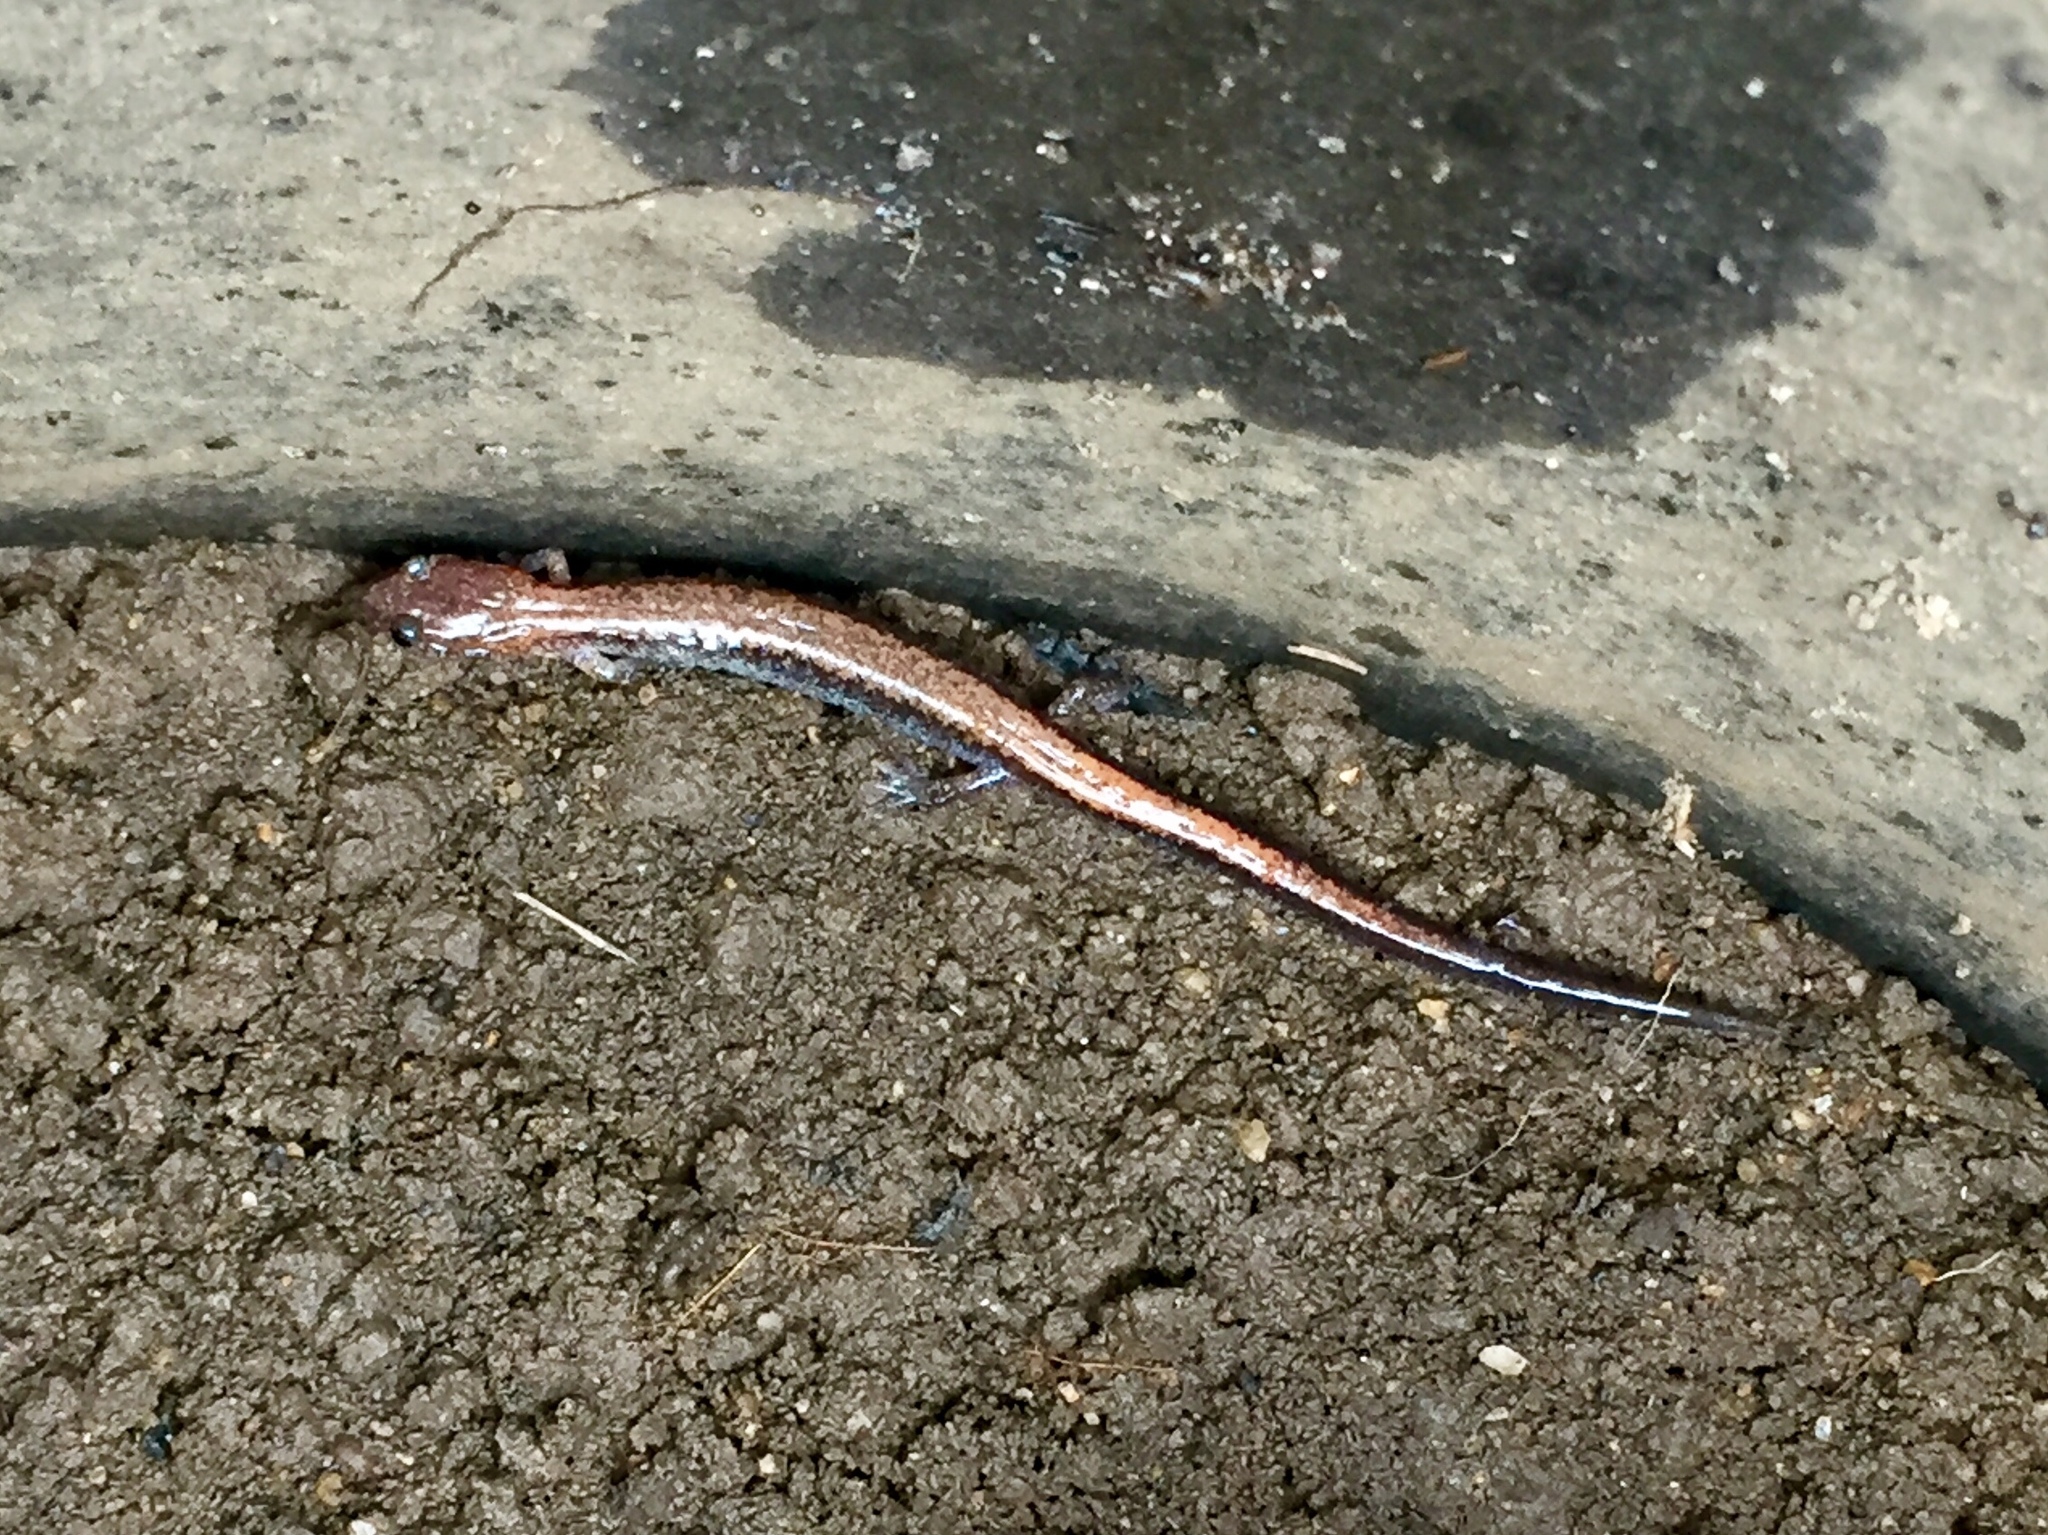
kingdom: Animalia
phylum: Chordata
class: Amphibia
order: Caudata
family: Plethodontidae
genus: Plethodon
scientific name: Plethodon cinereus
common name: Redback salamander
